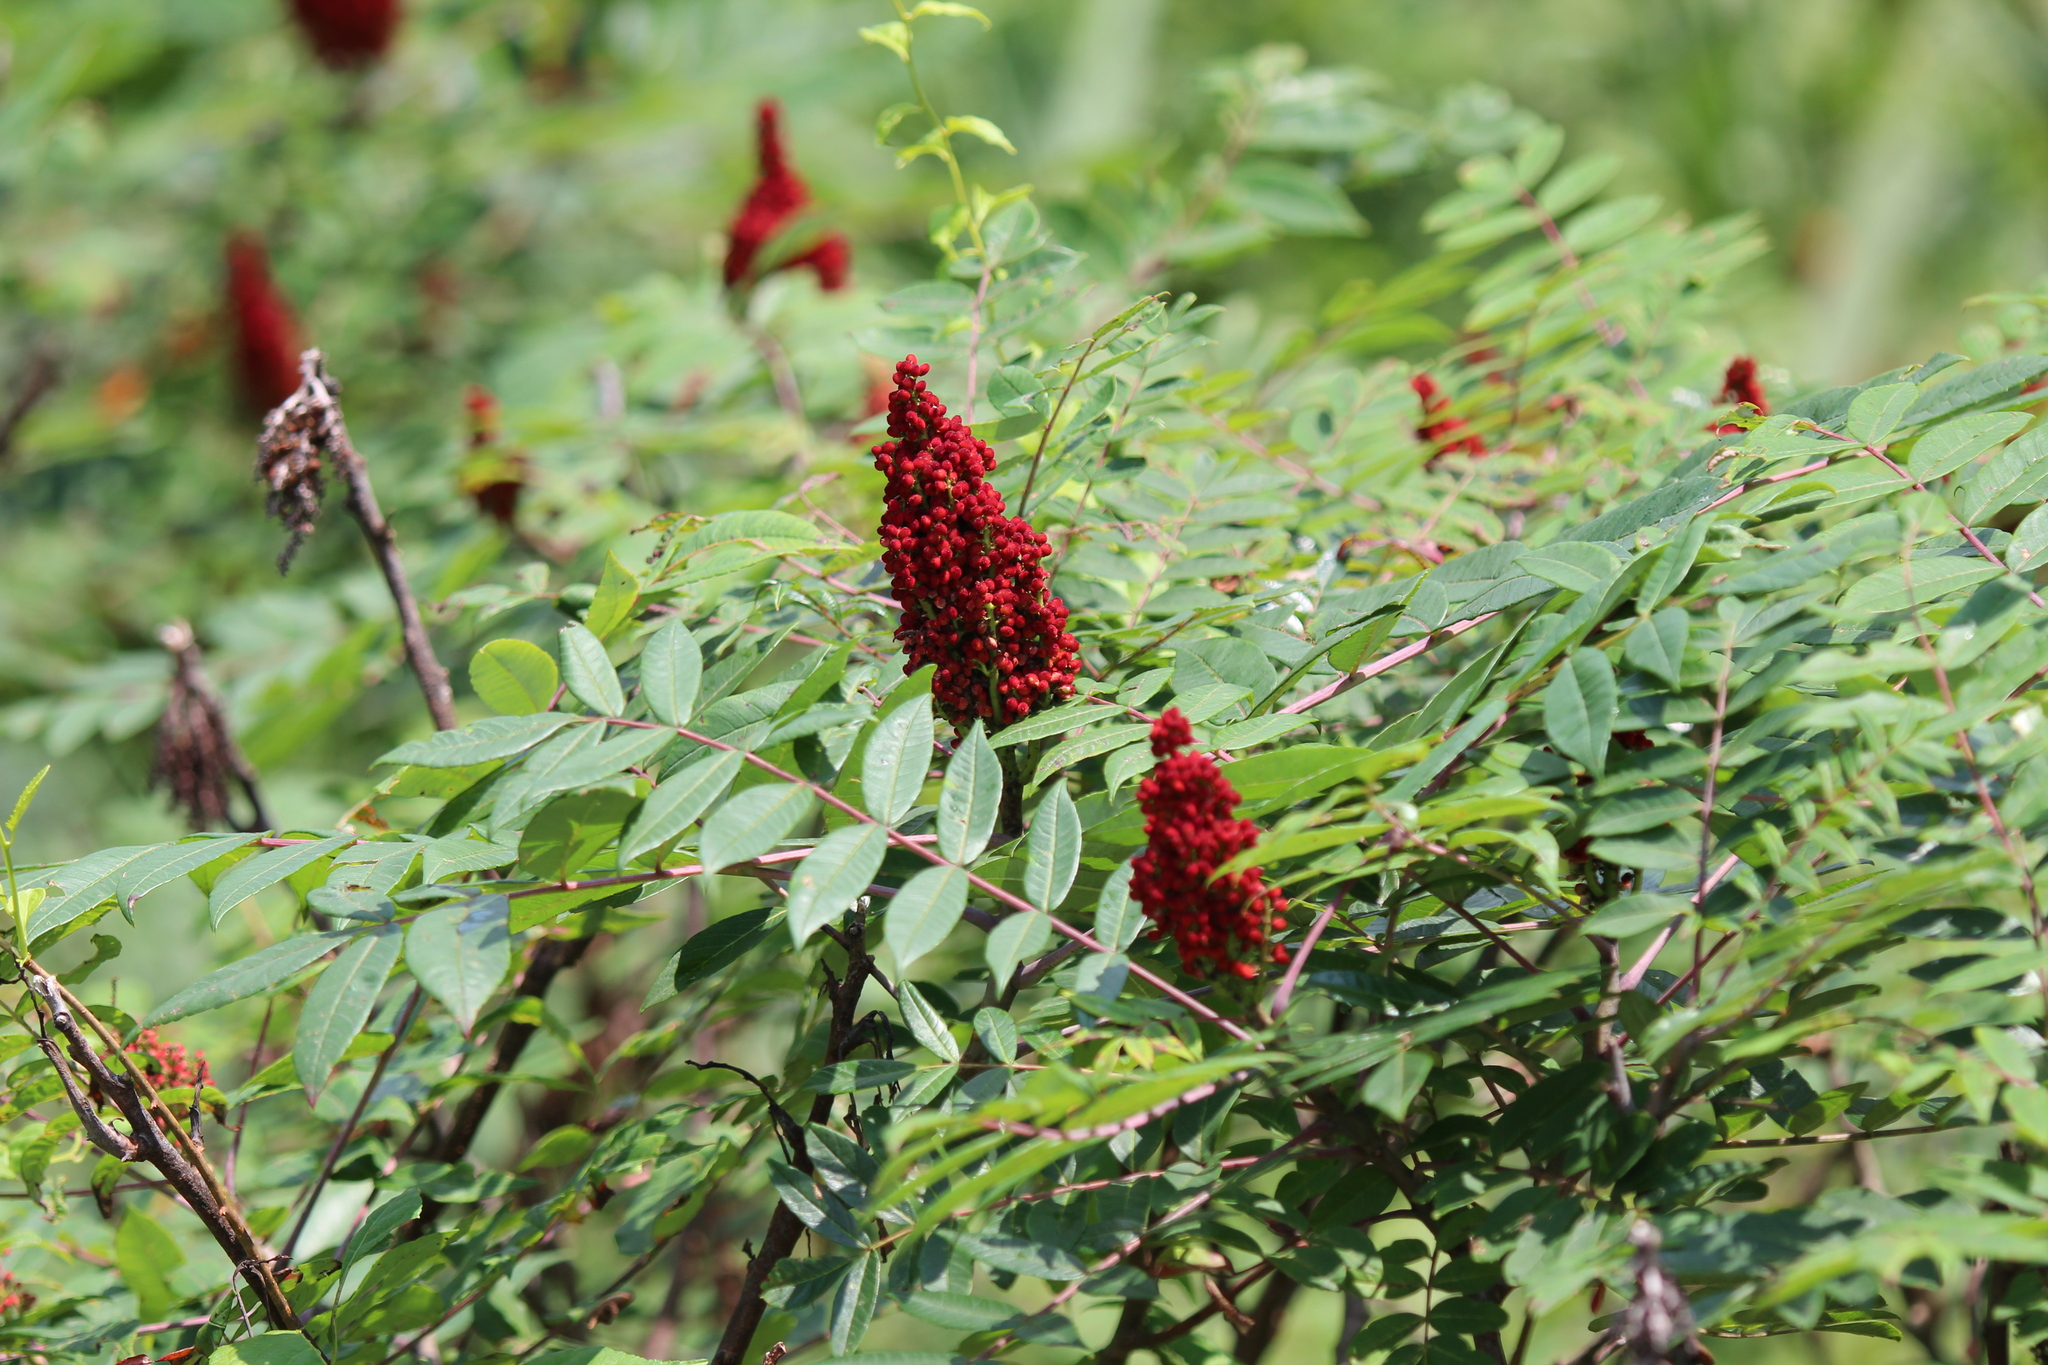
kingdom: Plantae
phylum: Tracheophyta
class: Magnoliopsida
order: Sapindales
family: Anacardiaceae
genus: Rhus
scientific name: Rhus glabra
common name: Scarlet sumac
